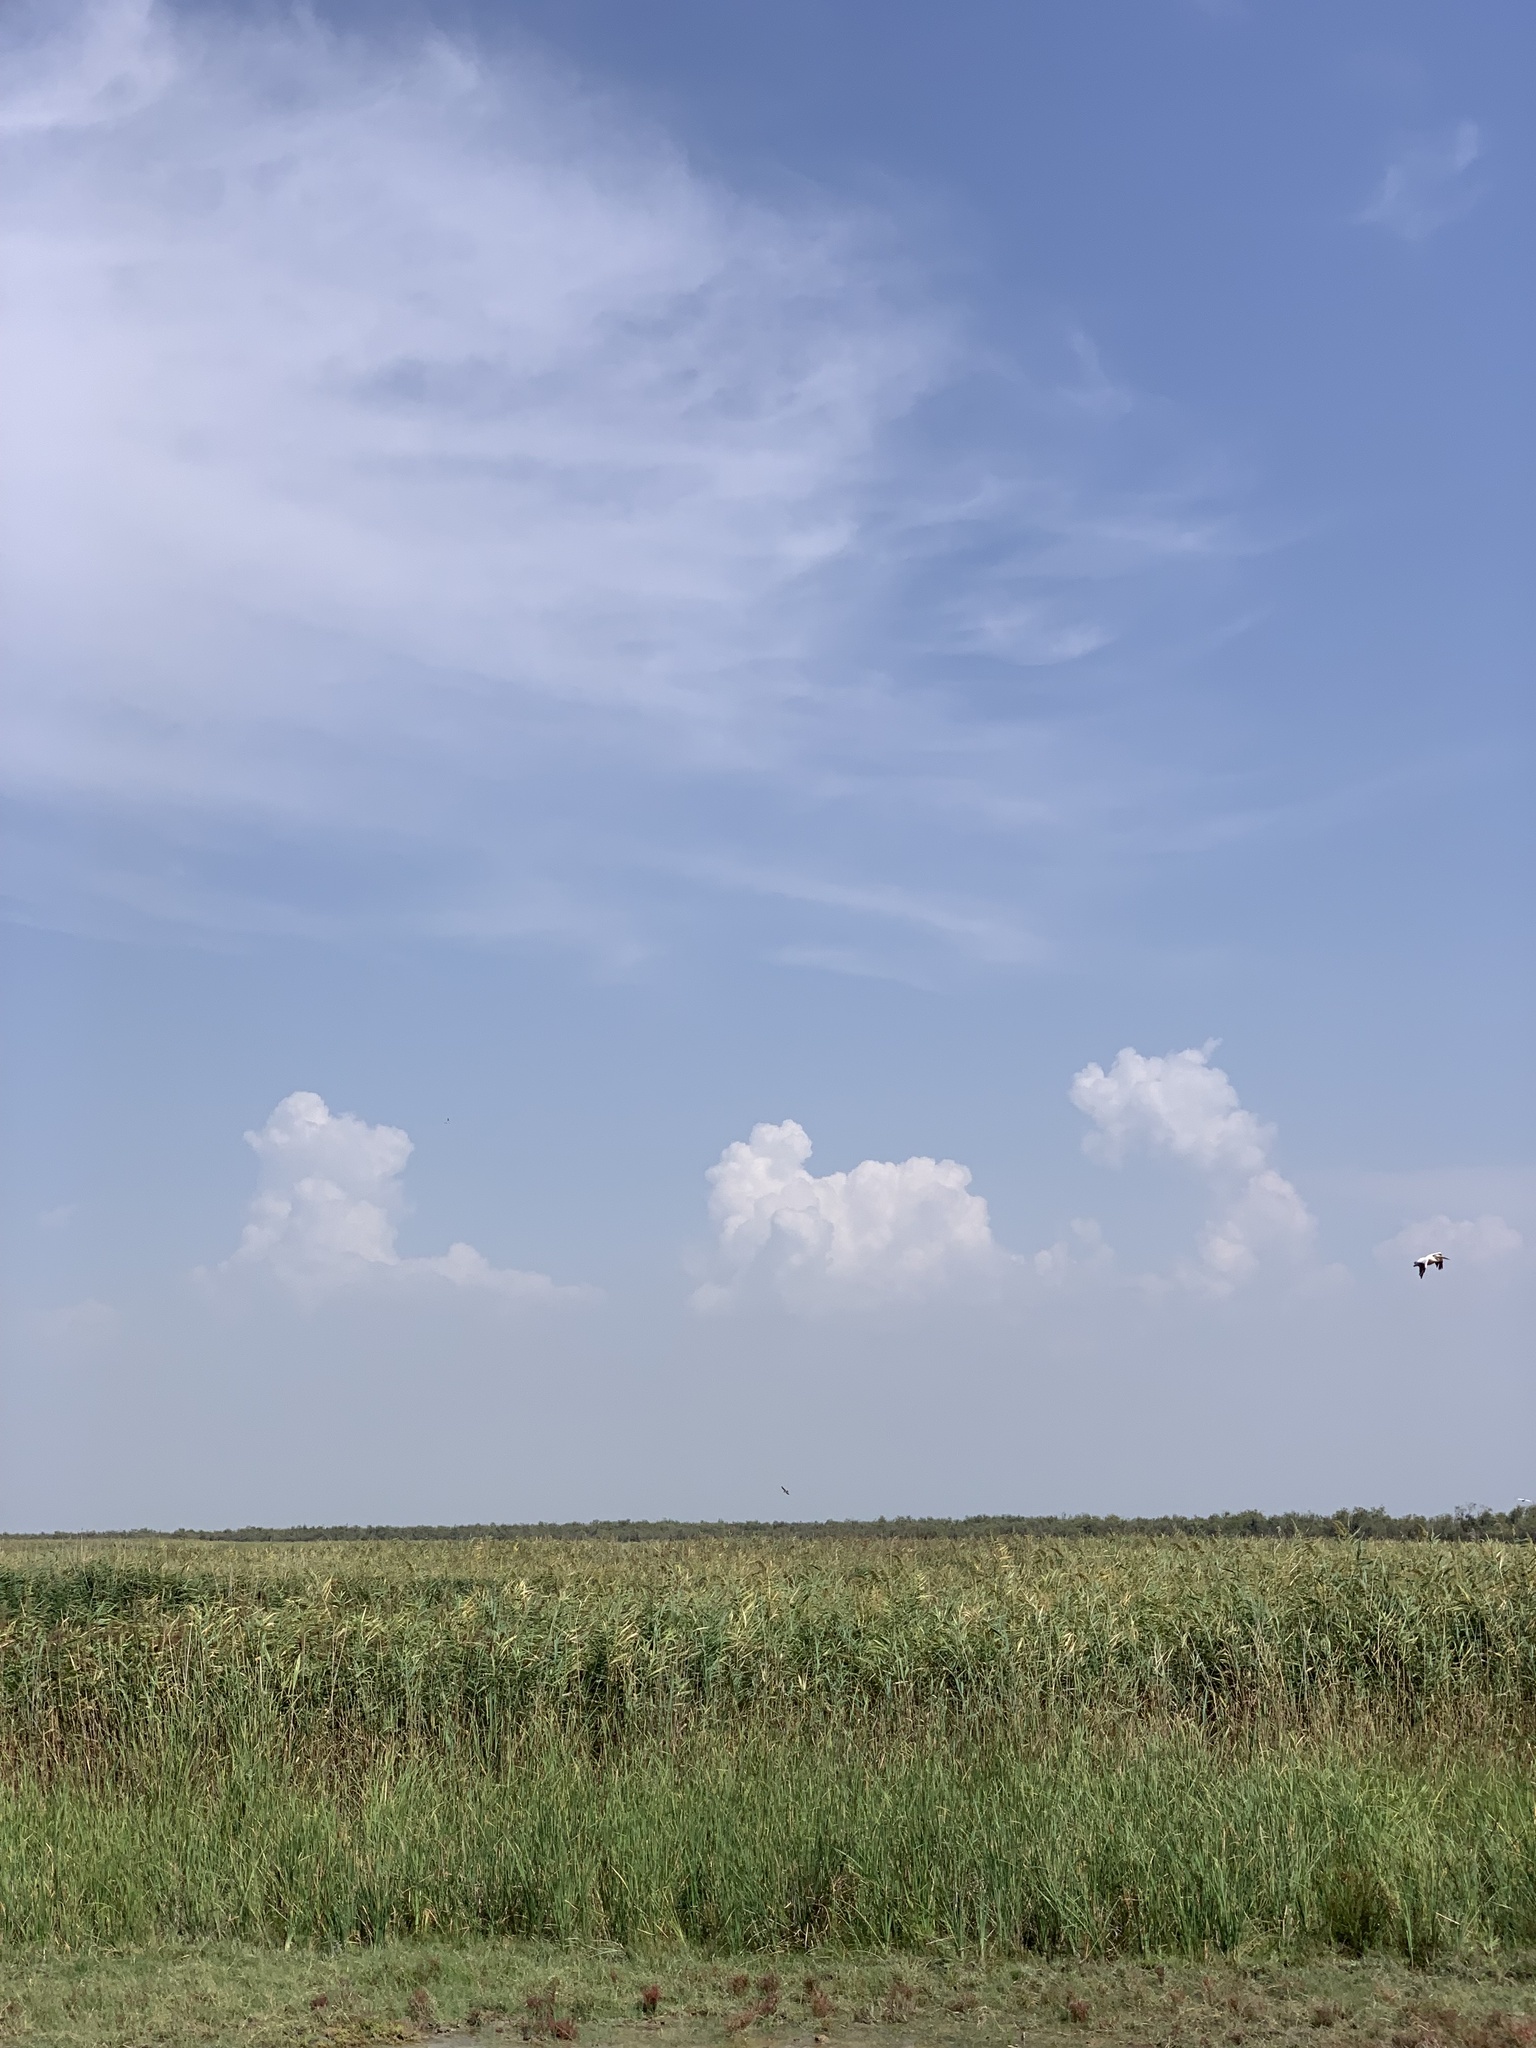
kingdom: Animalia
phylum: Chordata
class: Aves
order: Pelecaniformes
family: Pelecanidae
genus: Pelecanus
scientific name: Pelecanus onocrotalus
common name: Great white pelican
